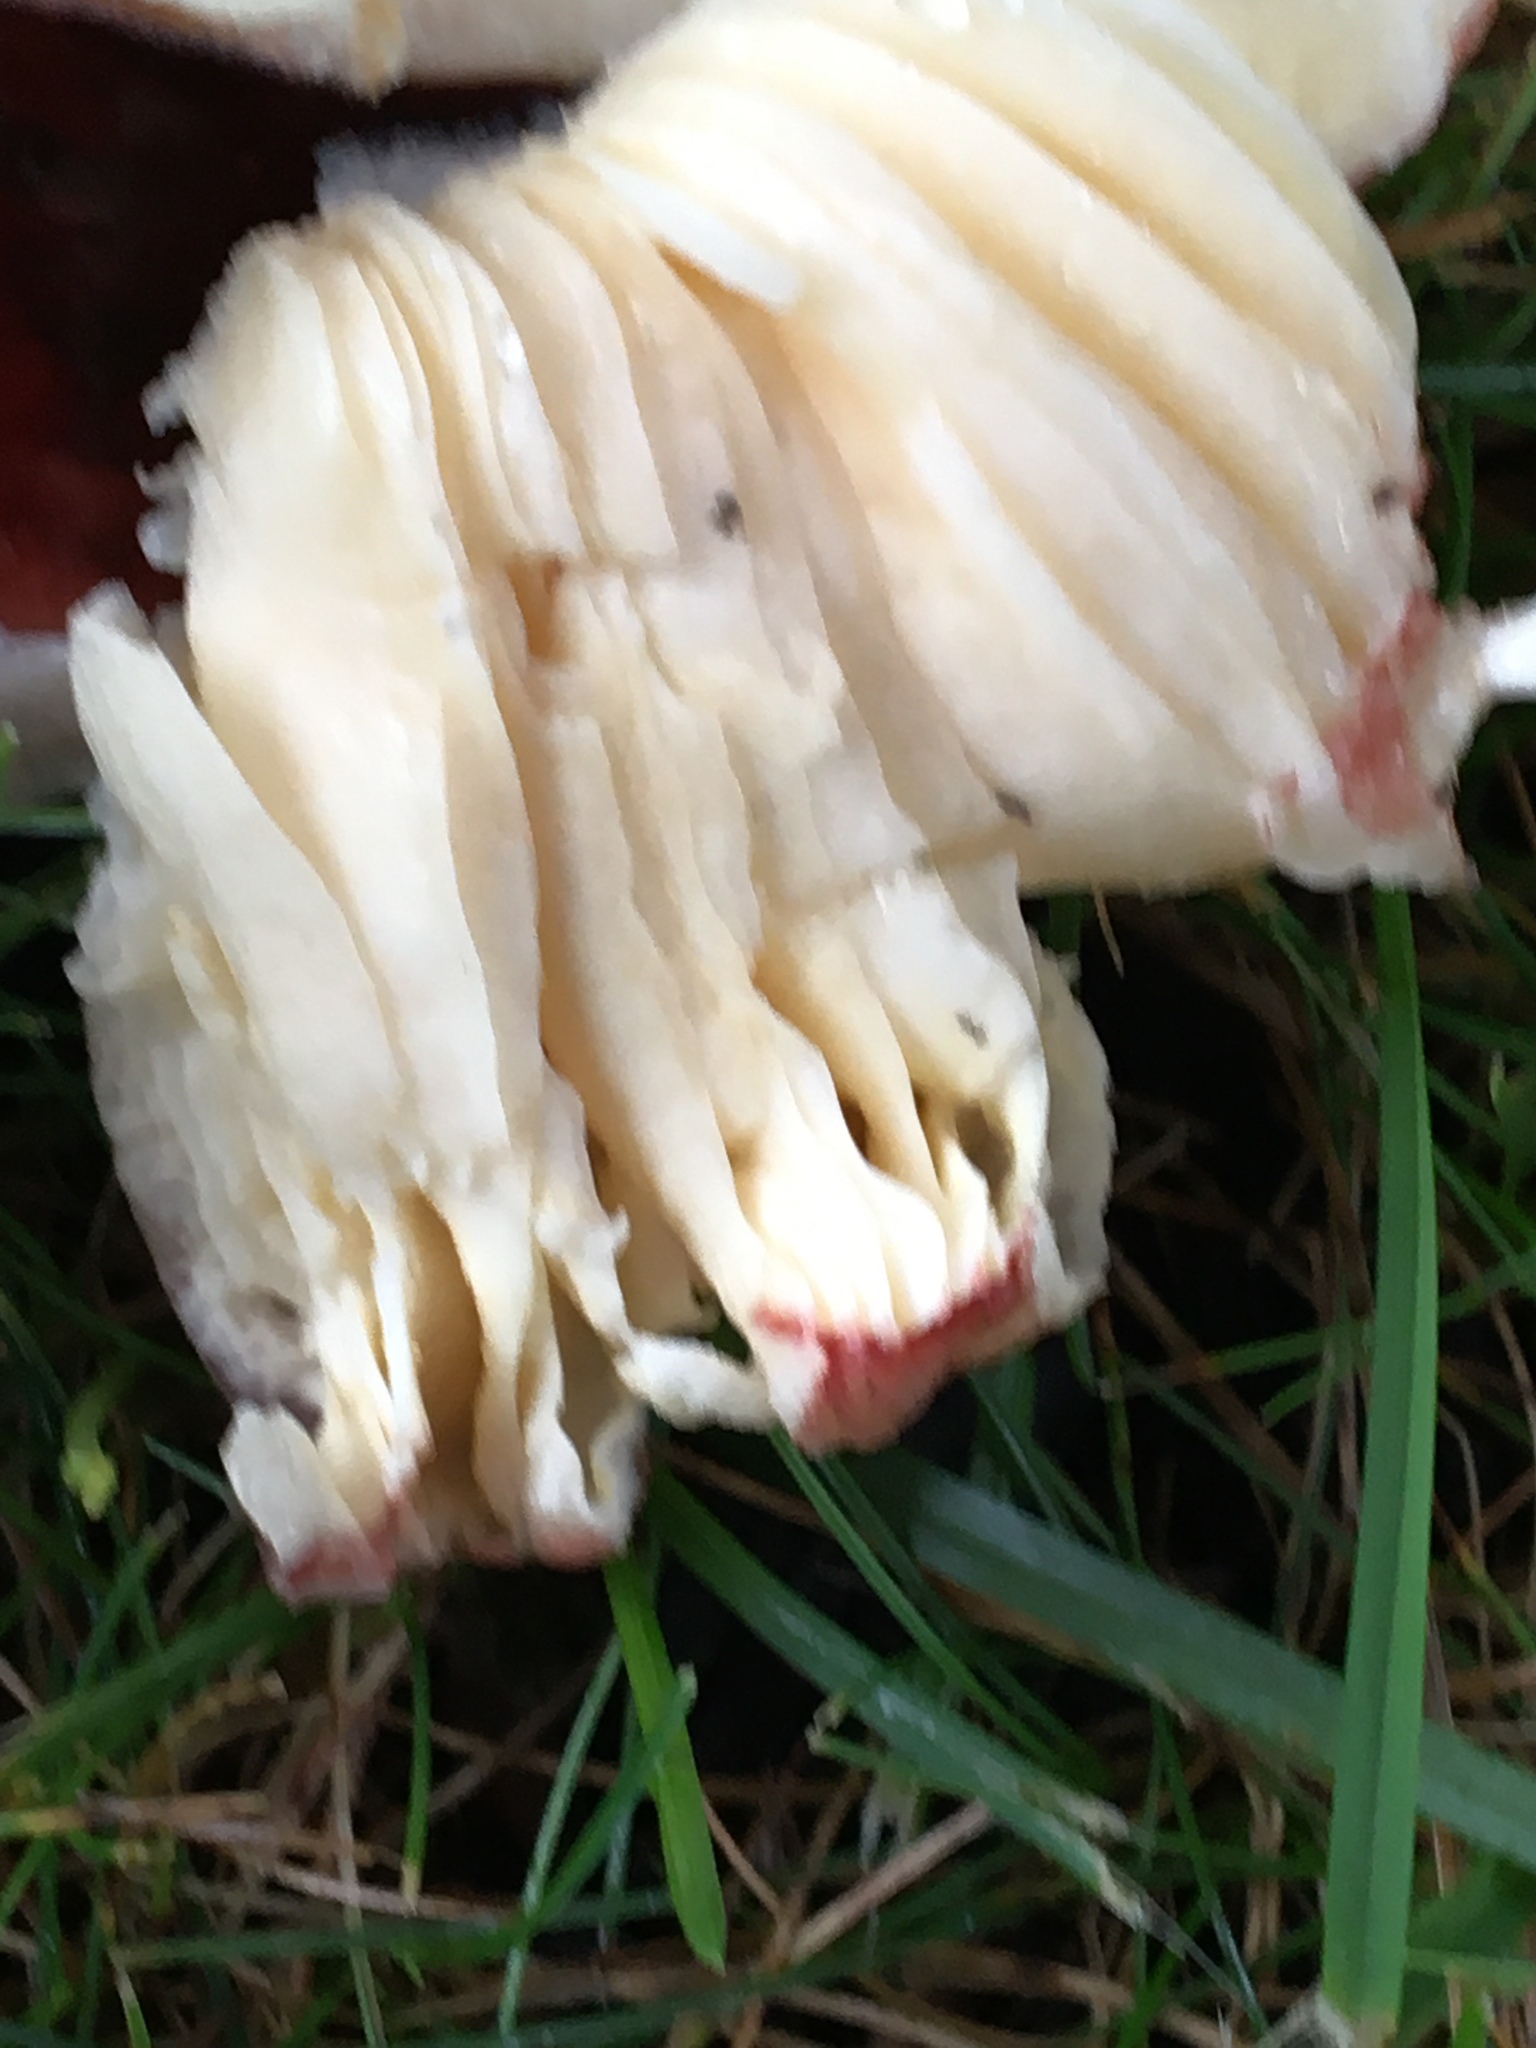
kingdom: Fungi
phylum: Basidiomycota
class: Agaricomycetes
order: Russulales
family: Russulaceae
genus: Russula
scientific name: Russula
